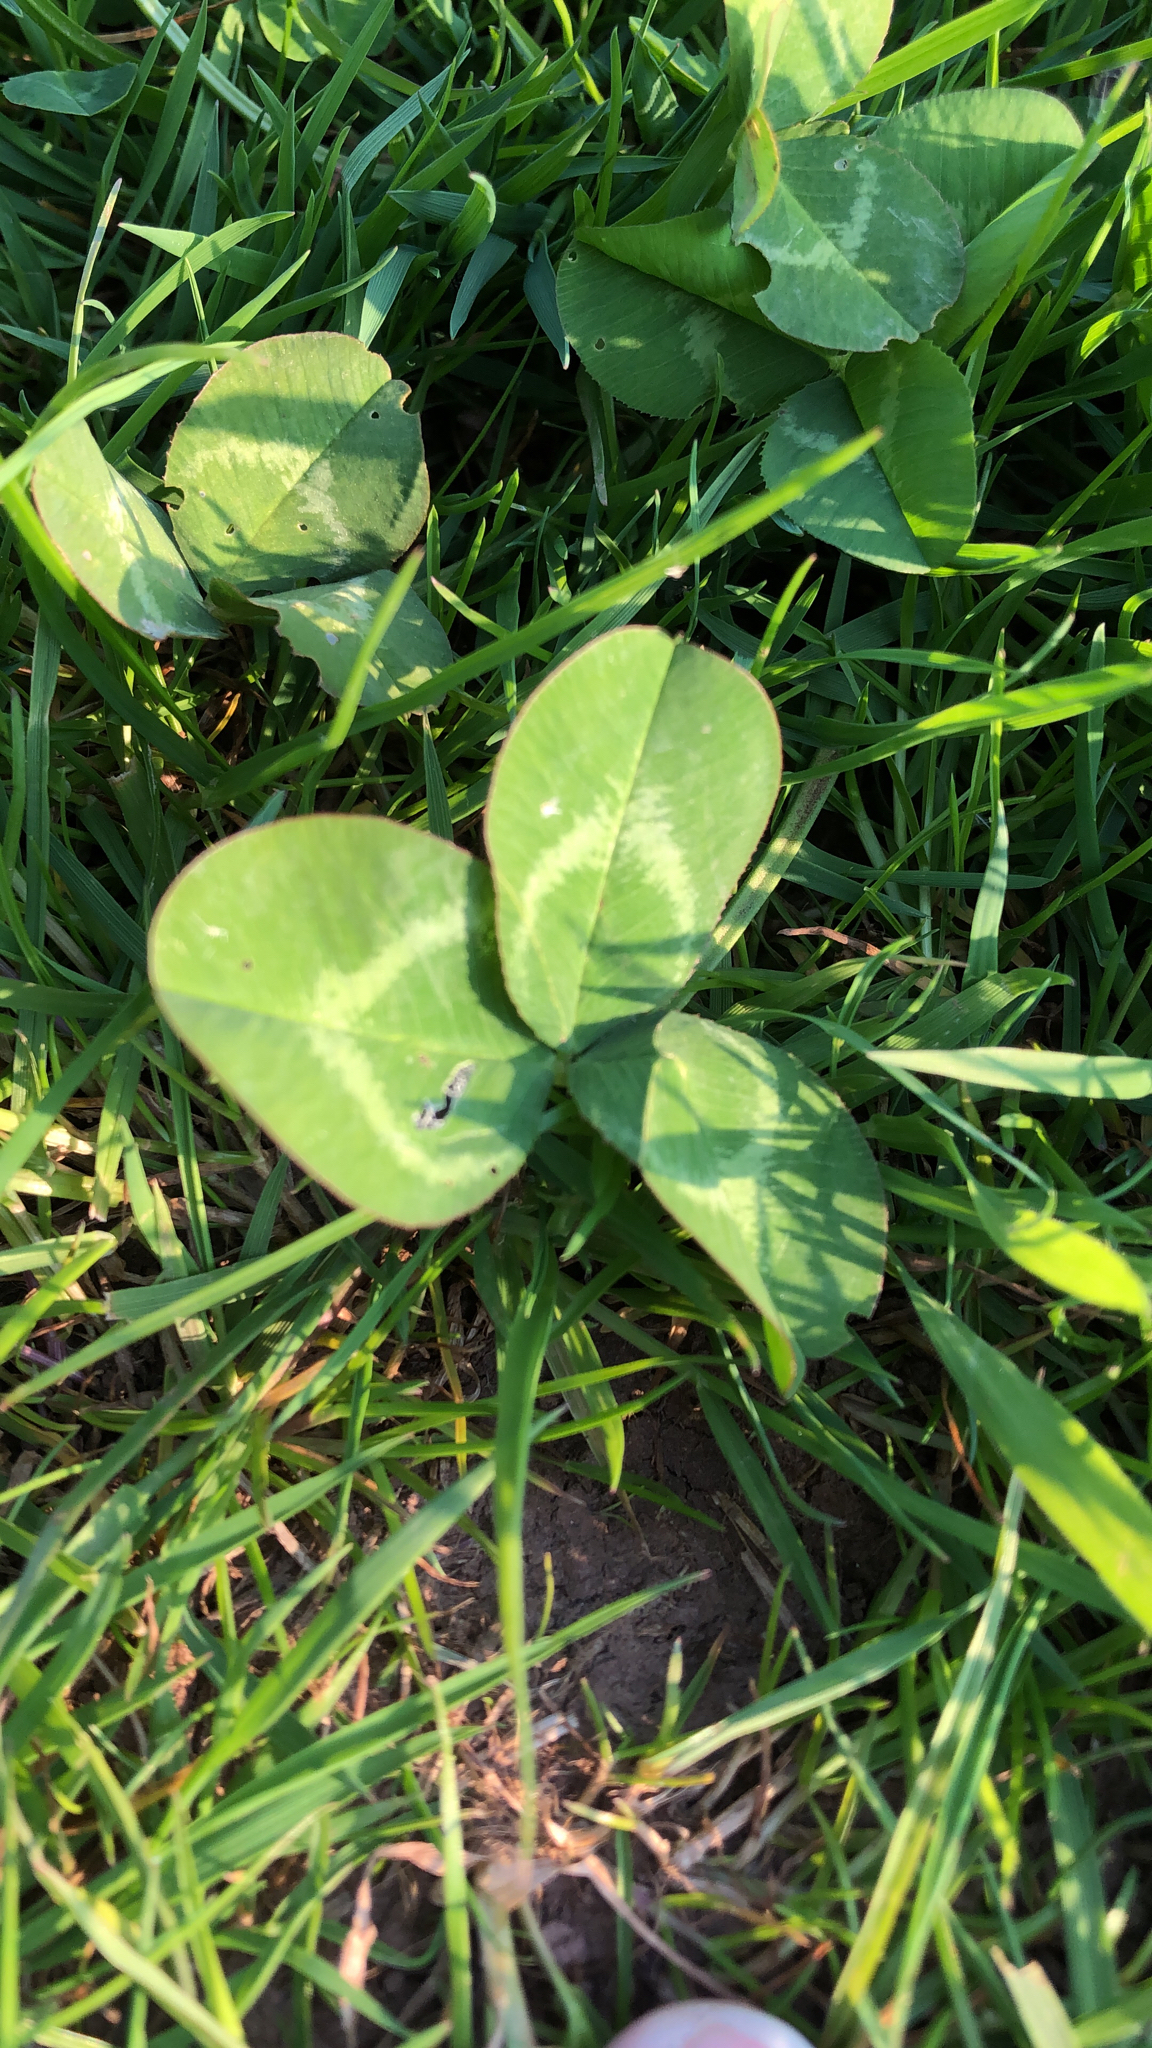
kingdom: Plantae
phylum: Tracheophyta
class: Magnoliopsida
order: Fabales
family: Fabaceae
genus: Trifolium
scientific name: Trifolium repens
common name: White clover
